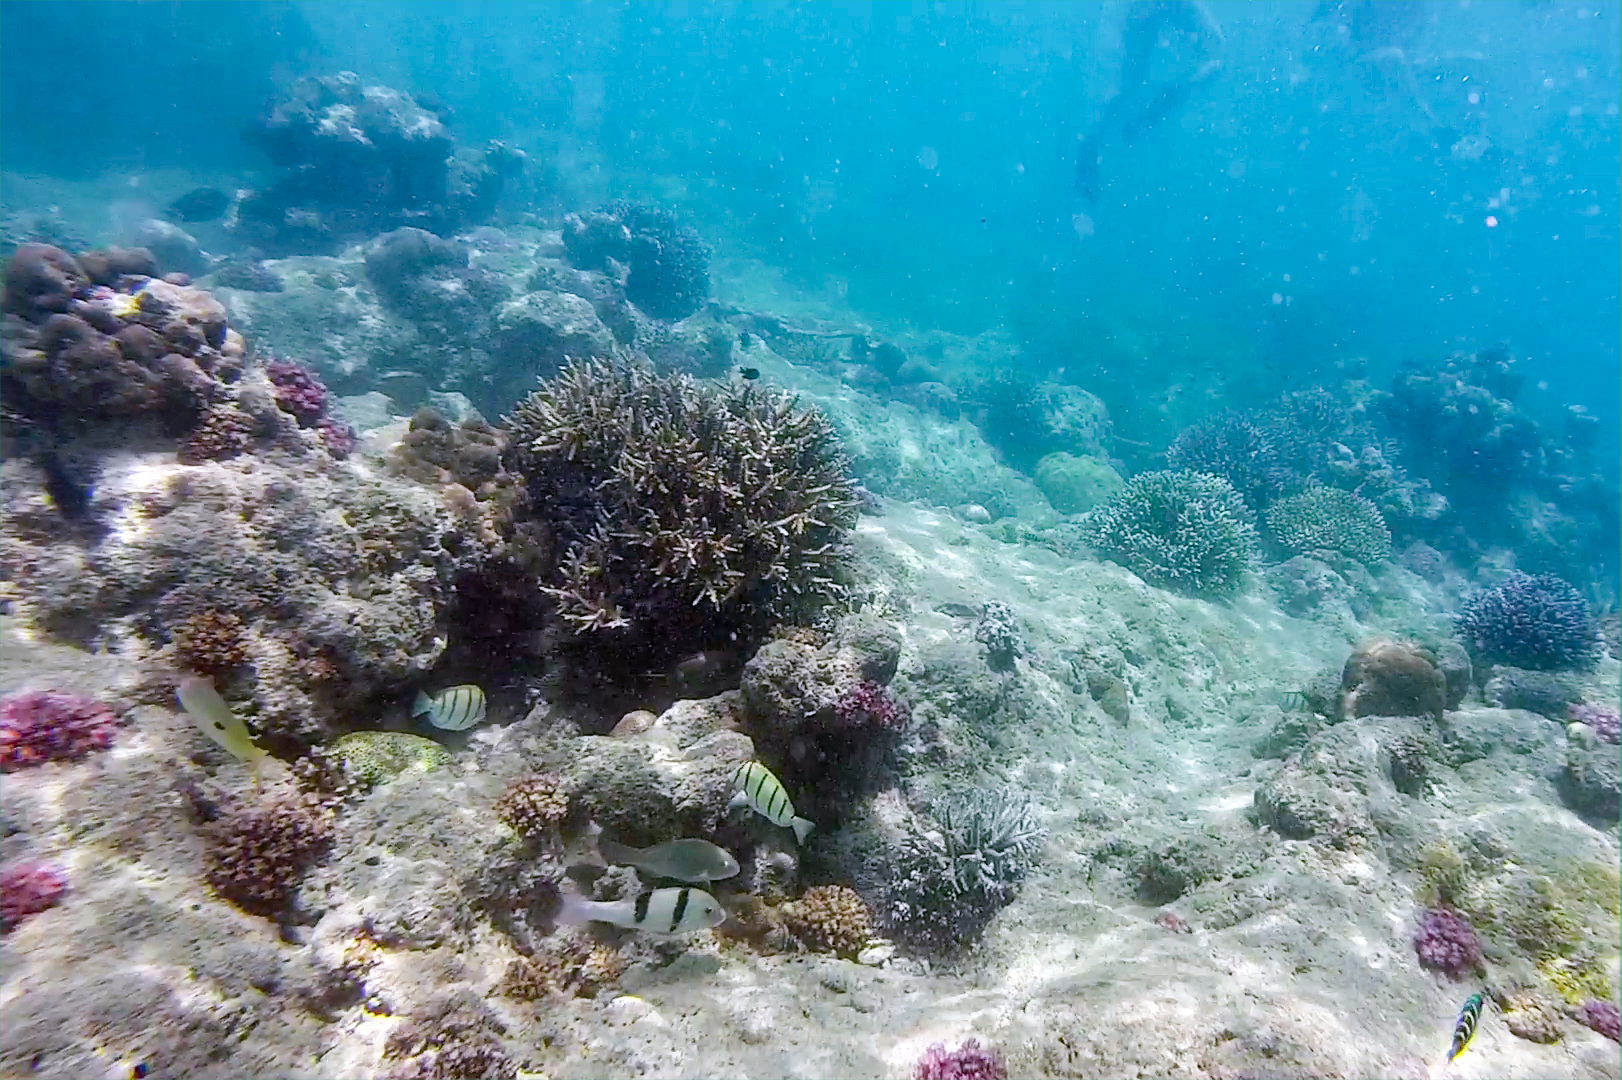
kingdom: Animalia
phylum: Chordata
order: Perciformes
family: Mullidae
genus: Parupeneus
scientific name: Parupeneus trifasciatus
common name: Doublebar goatfish
